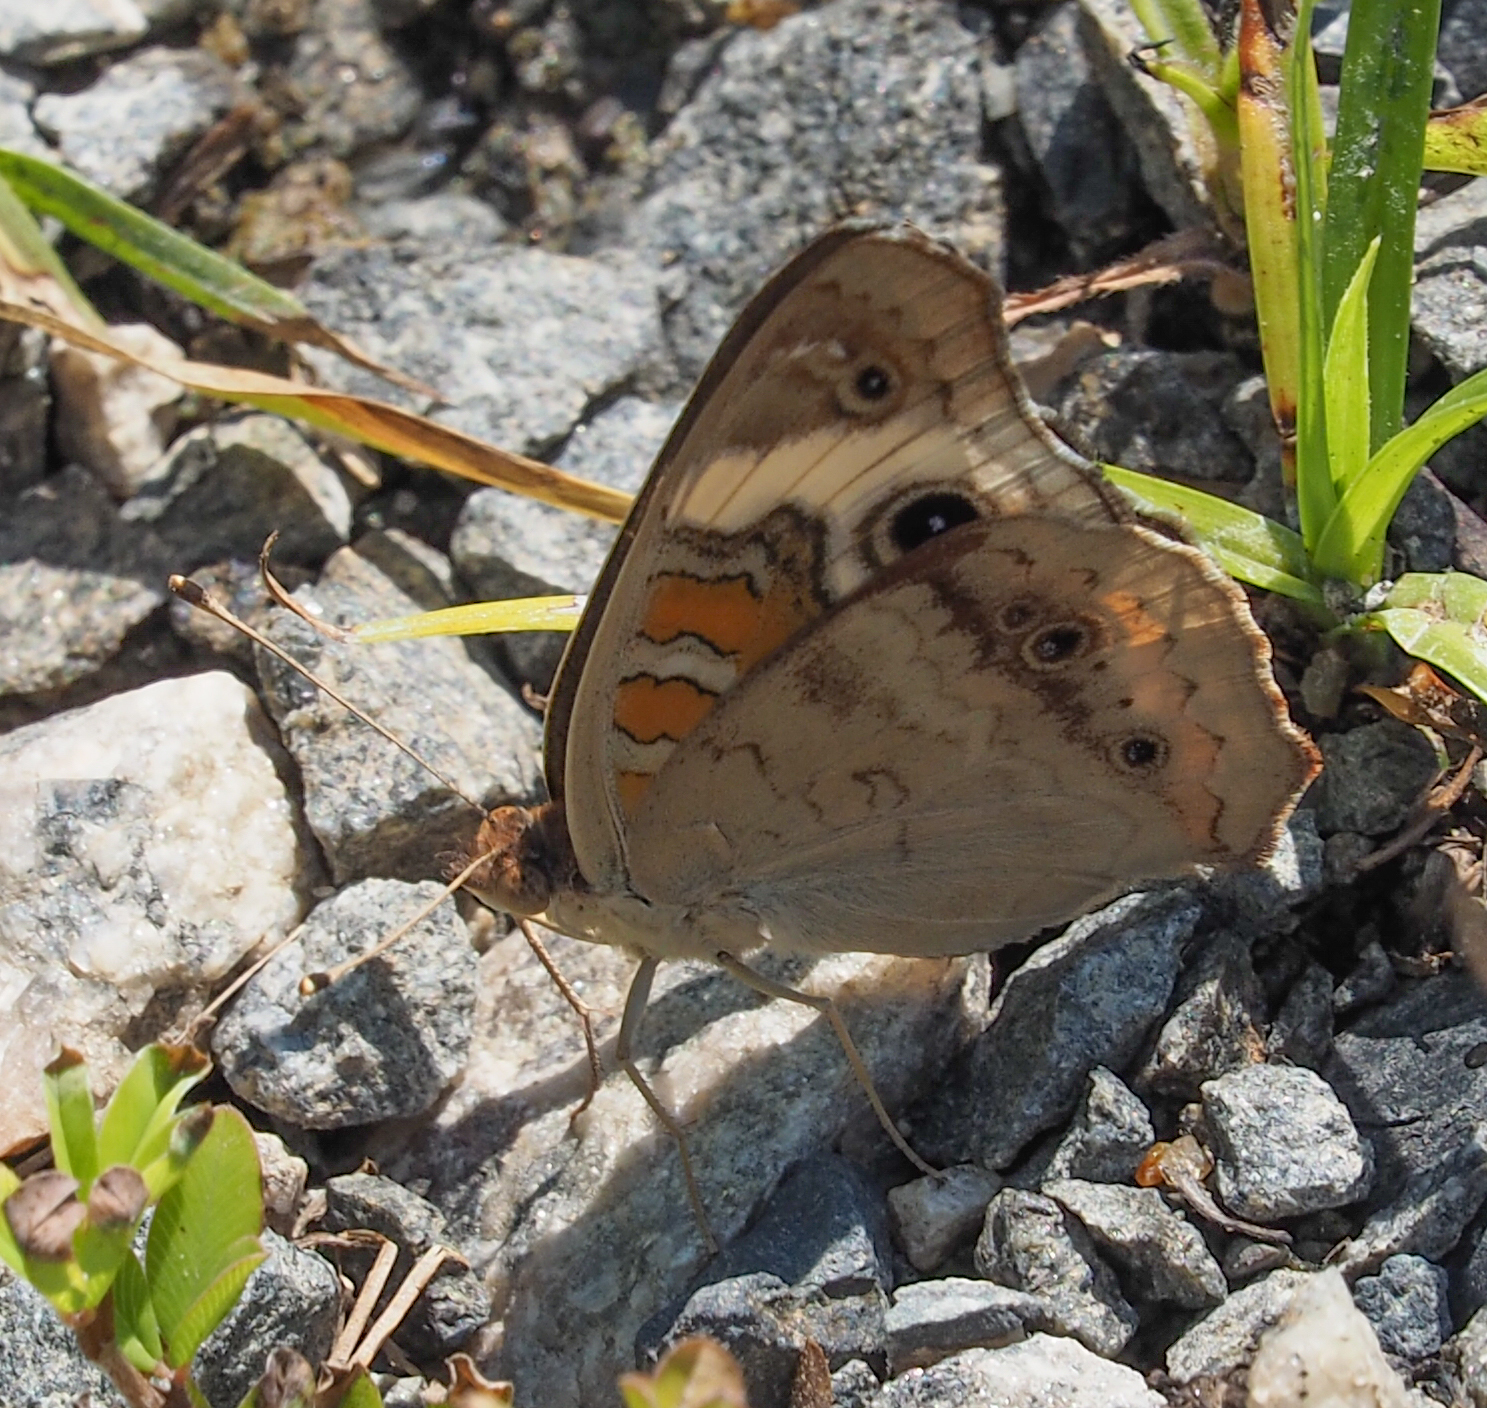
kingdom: Animalia
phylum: Arthropoda
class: Insecta
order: Lepidoptera
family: Nymphalidae
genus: Junonia
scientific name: Junonia coenia
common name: Common buckeye
